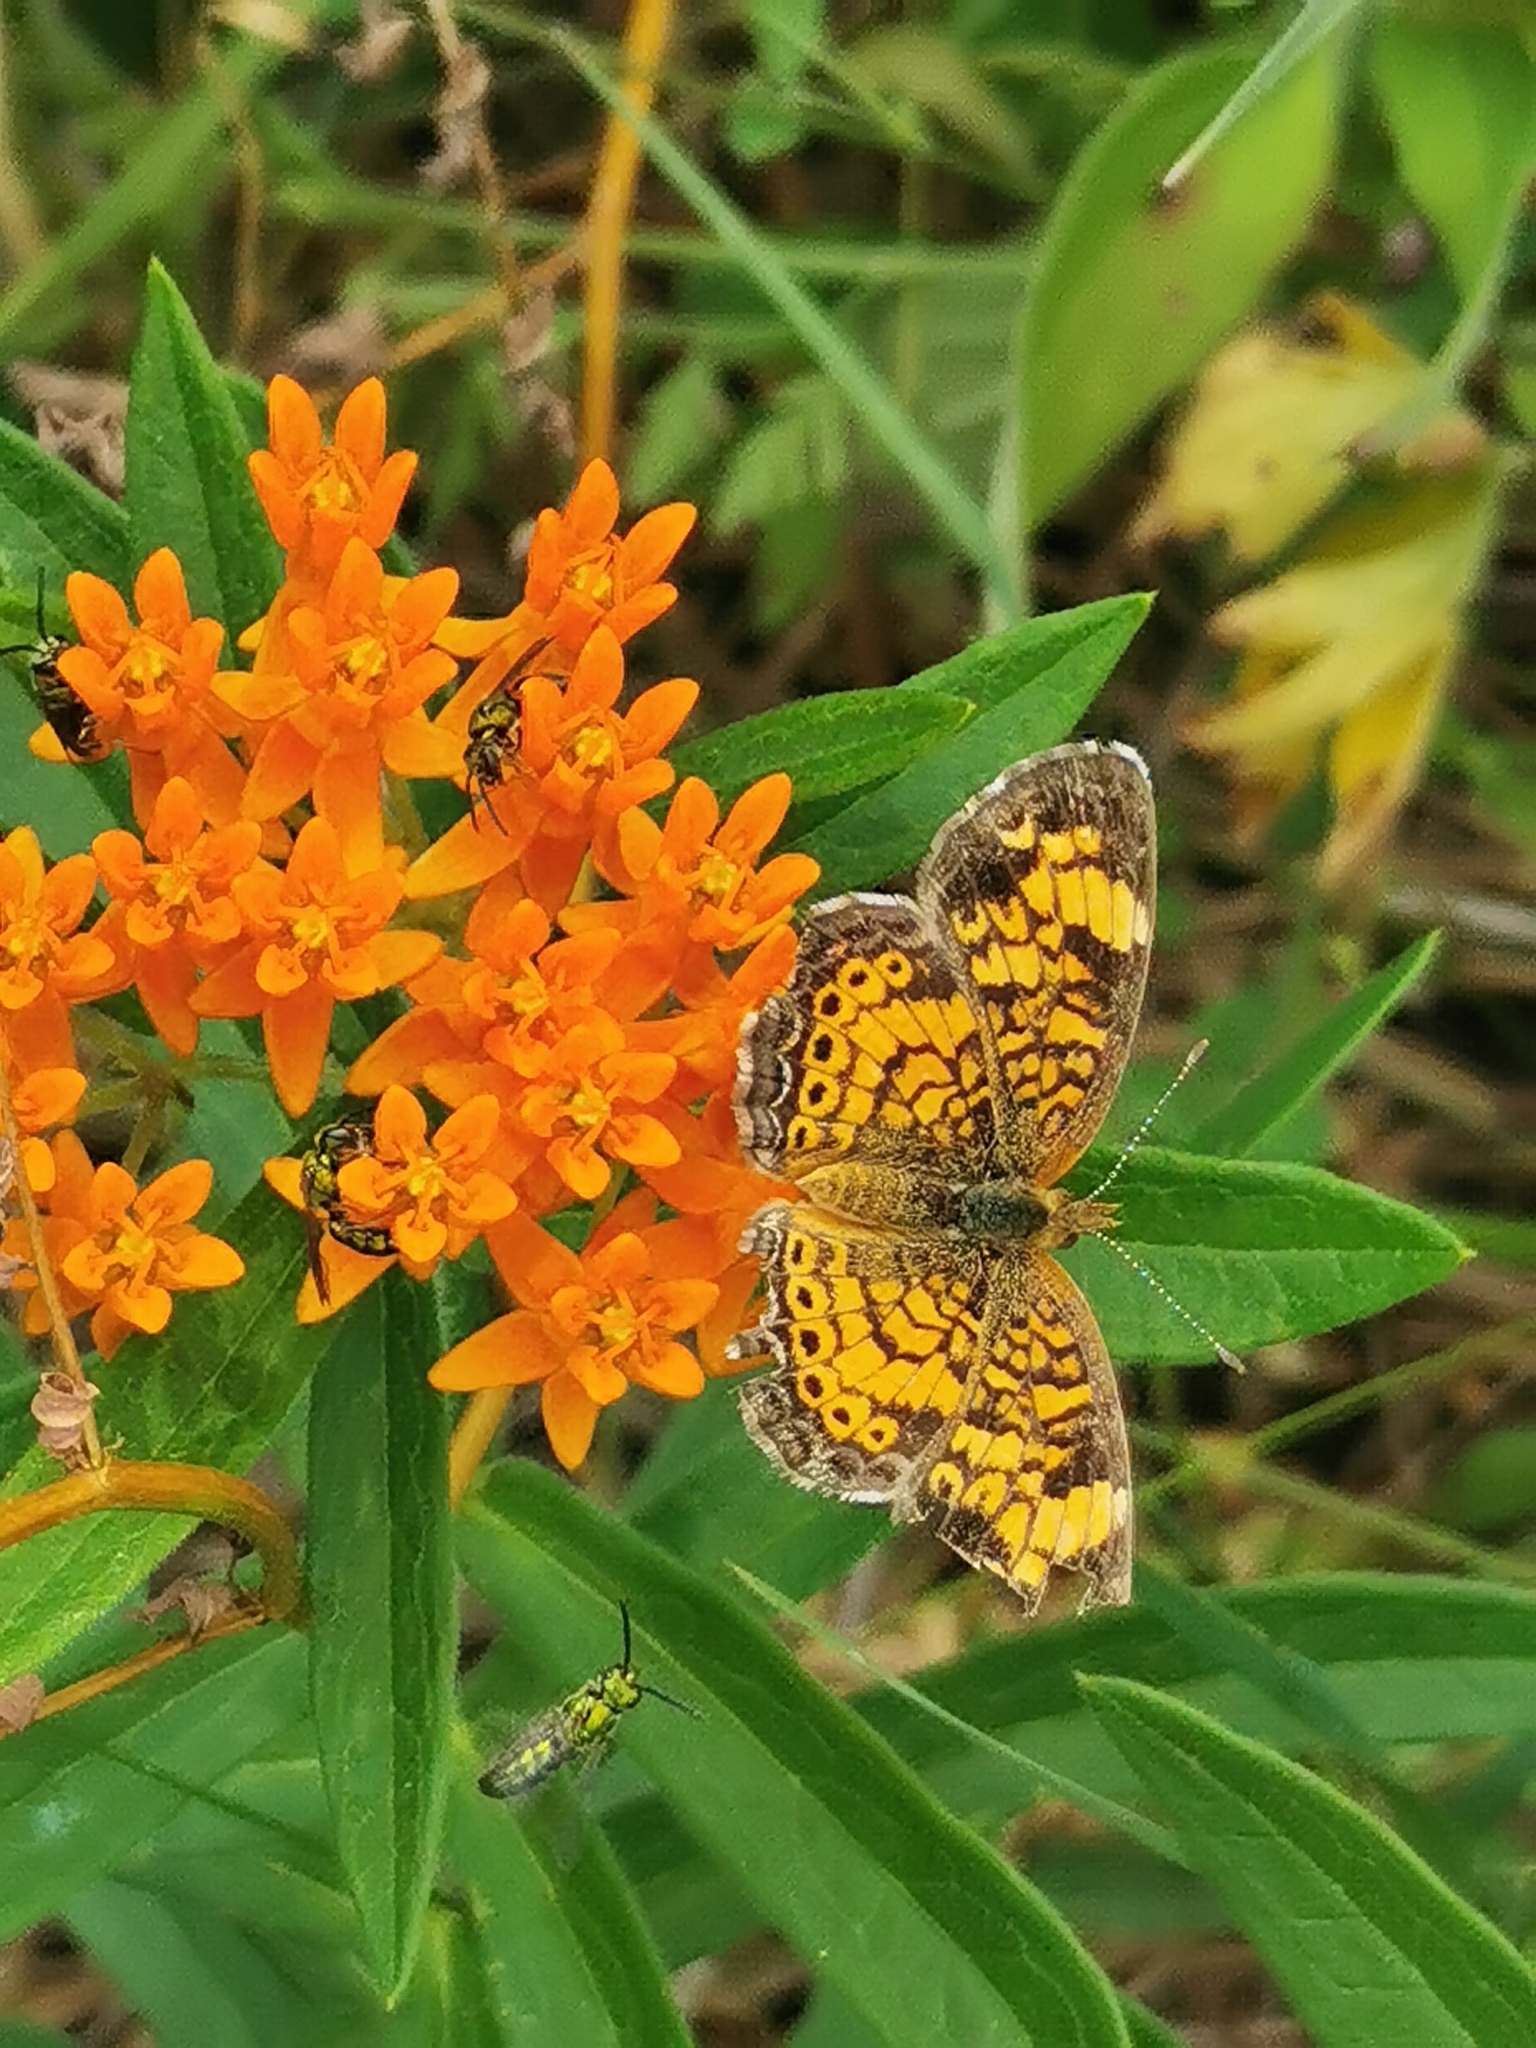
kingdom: Animalia
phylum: Arthropoda
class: Insecta
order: Lepidoptera
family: Nymphalidae
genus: Phyciodes
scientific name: Phyciodes tharos
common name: Pearl crescent
